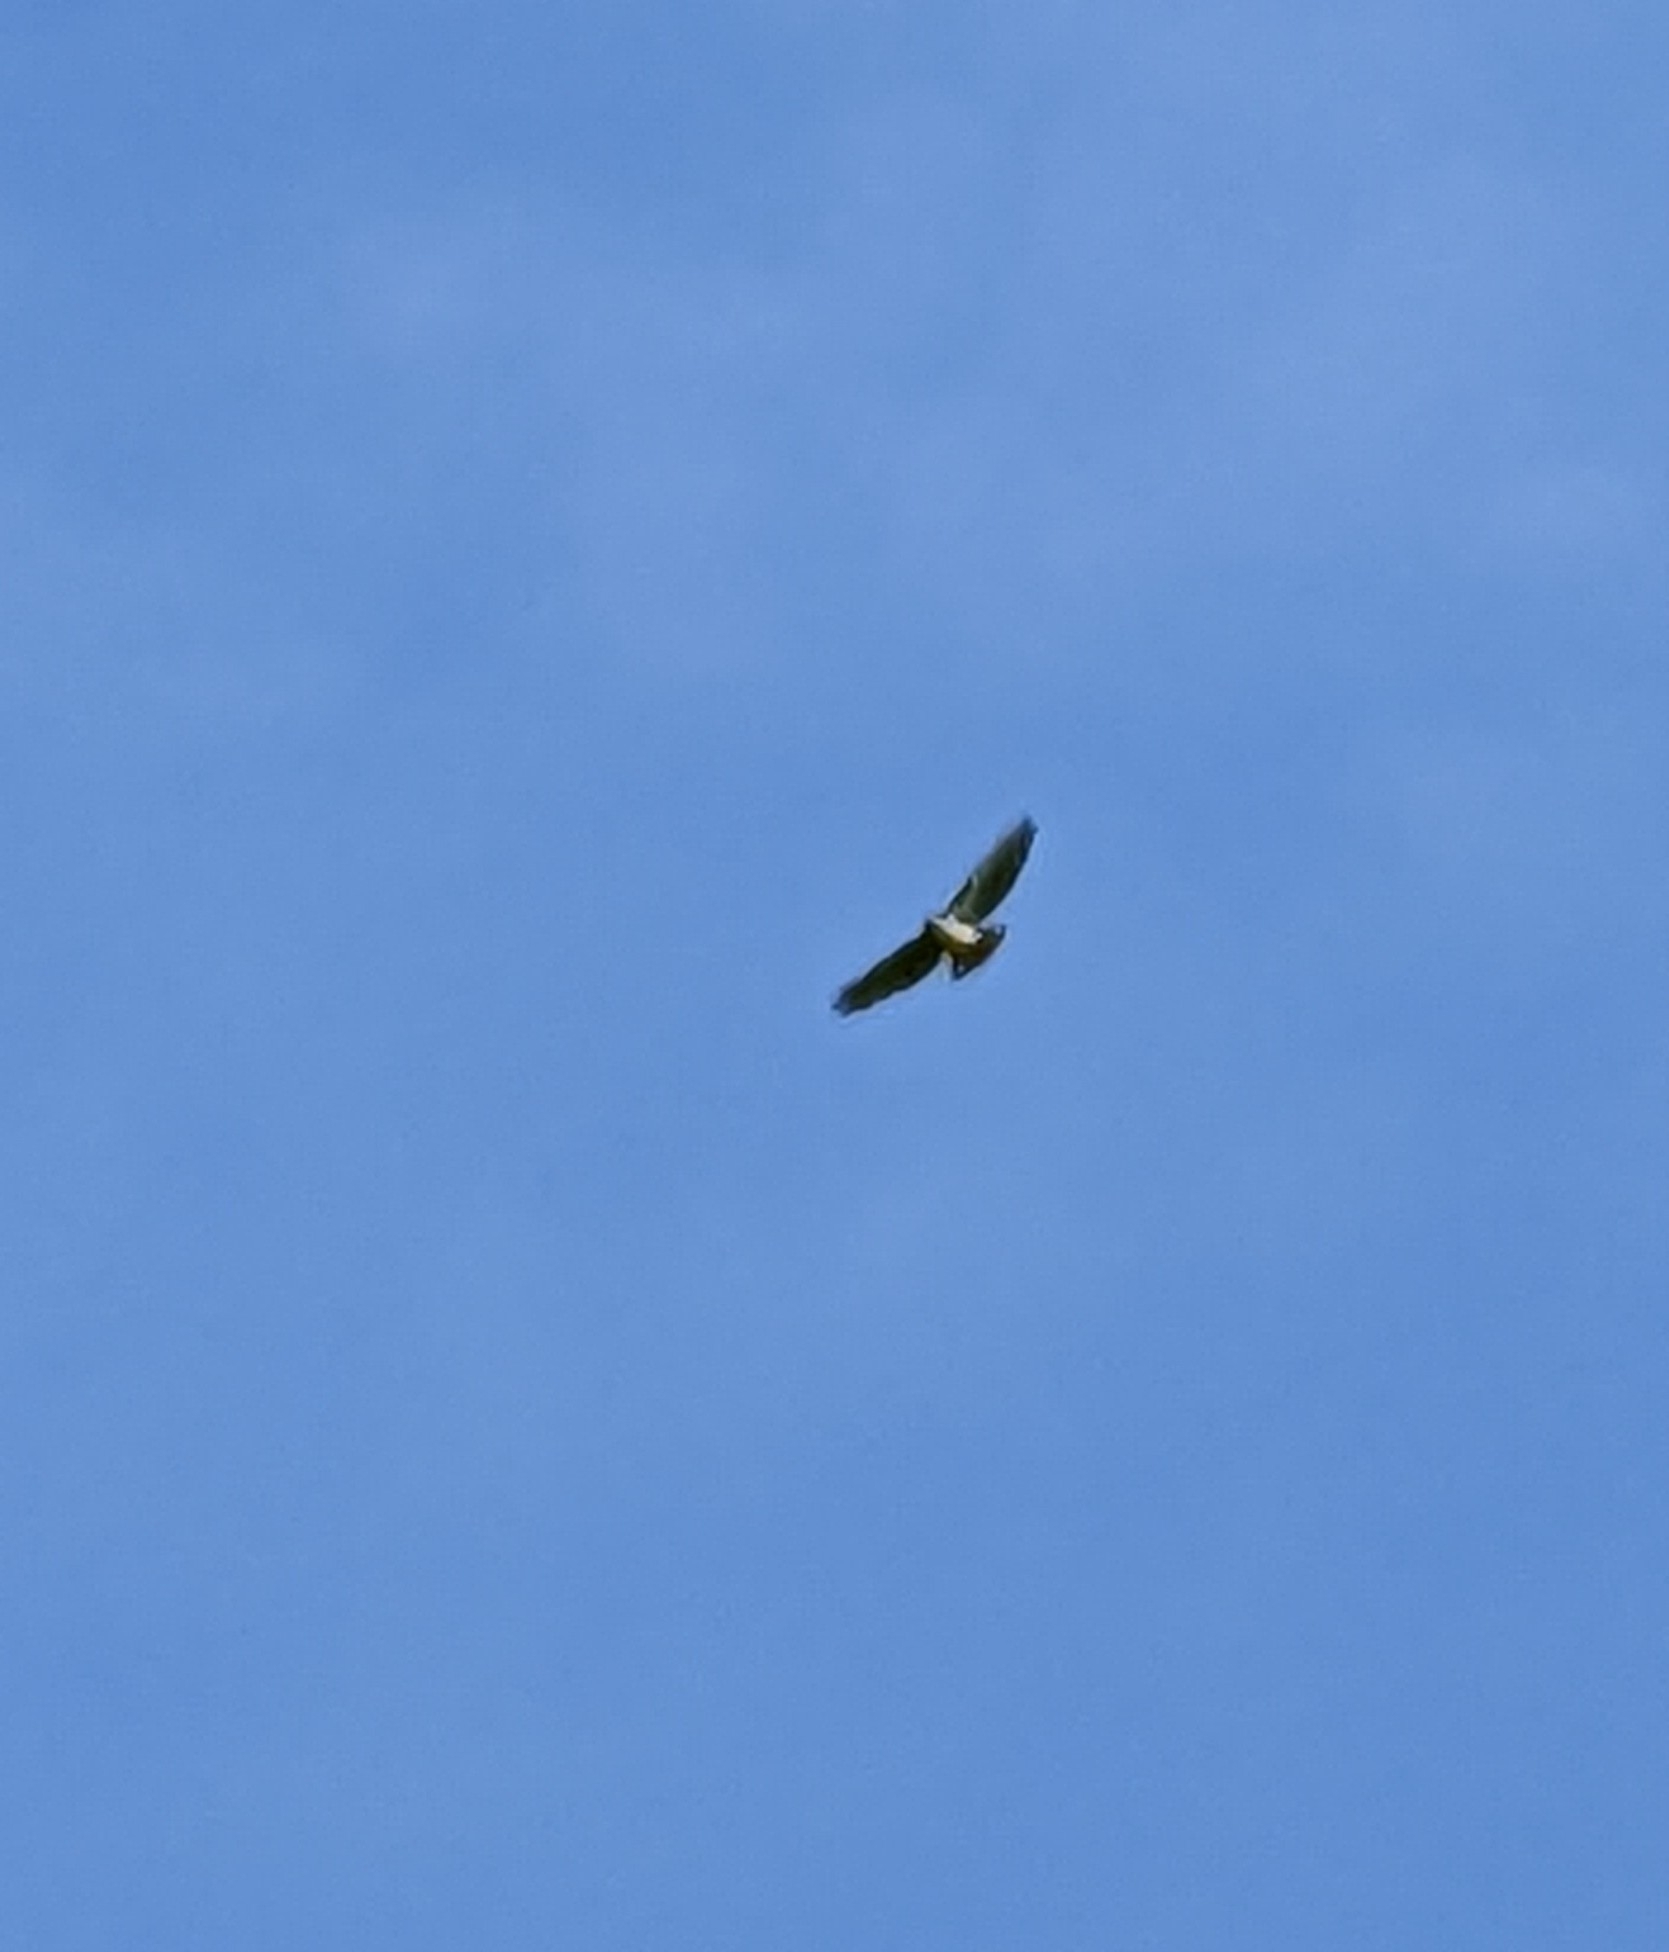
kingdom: Animalia
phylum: Chordata
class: Aves
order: Accipitriformes
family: Accipitridae
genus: Buteo
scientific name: Buteo jamaicensis
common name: Red-tailed hawk
